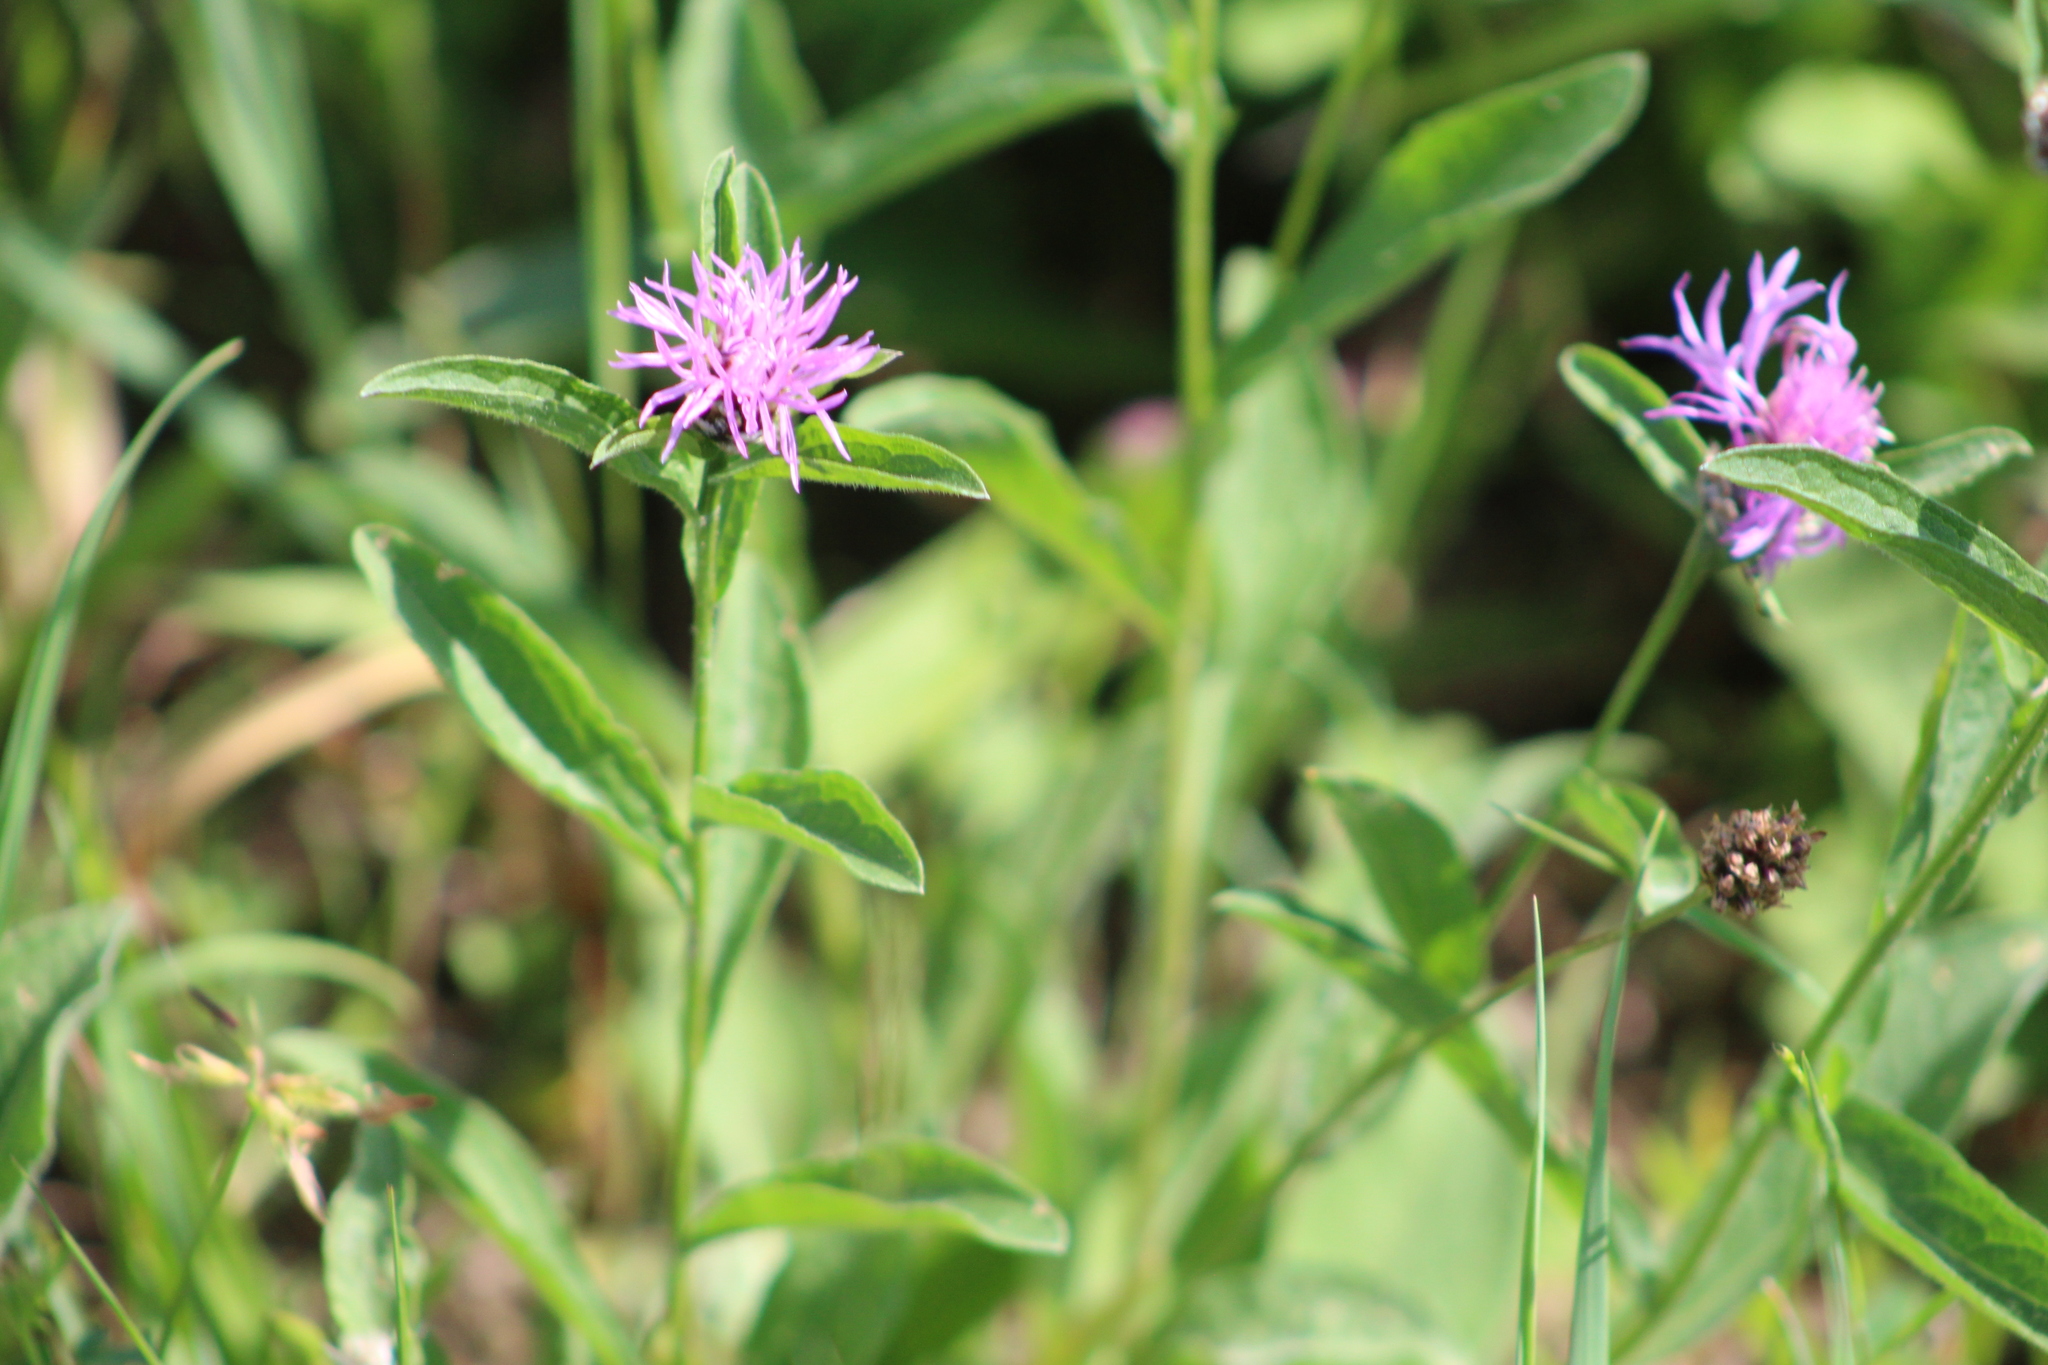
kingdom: Plantae
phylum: Tracheophyta
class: Magnoliopsida
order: Asterales
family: Asteraceae
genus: Centaurea
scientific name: Centaurea jacea
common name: Brown knapweed
